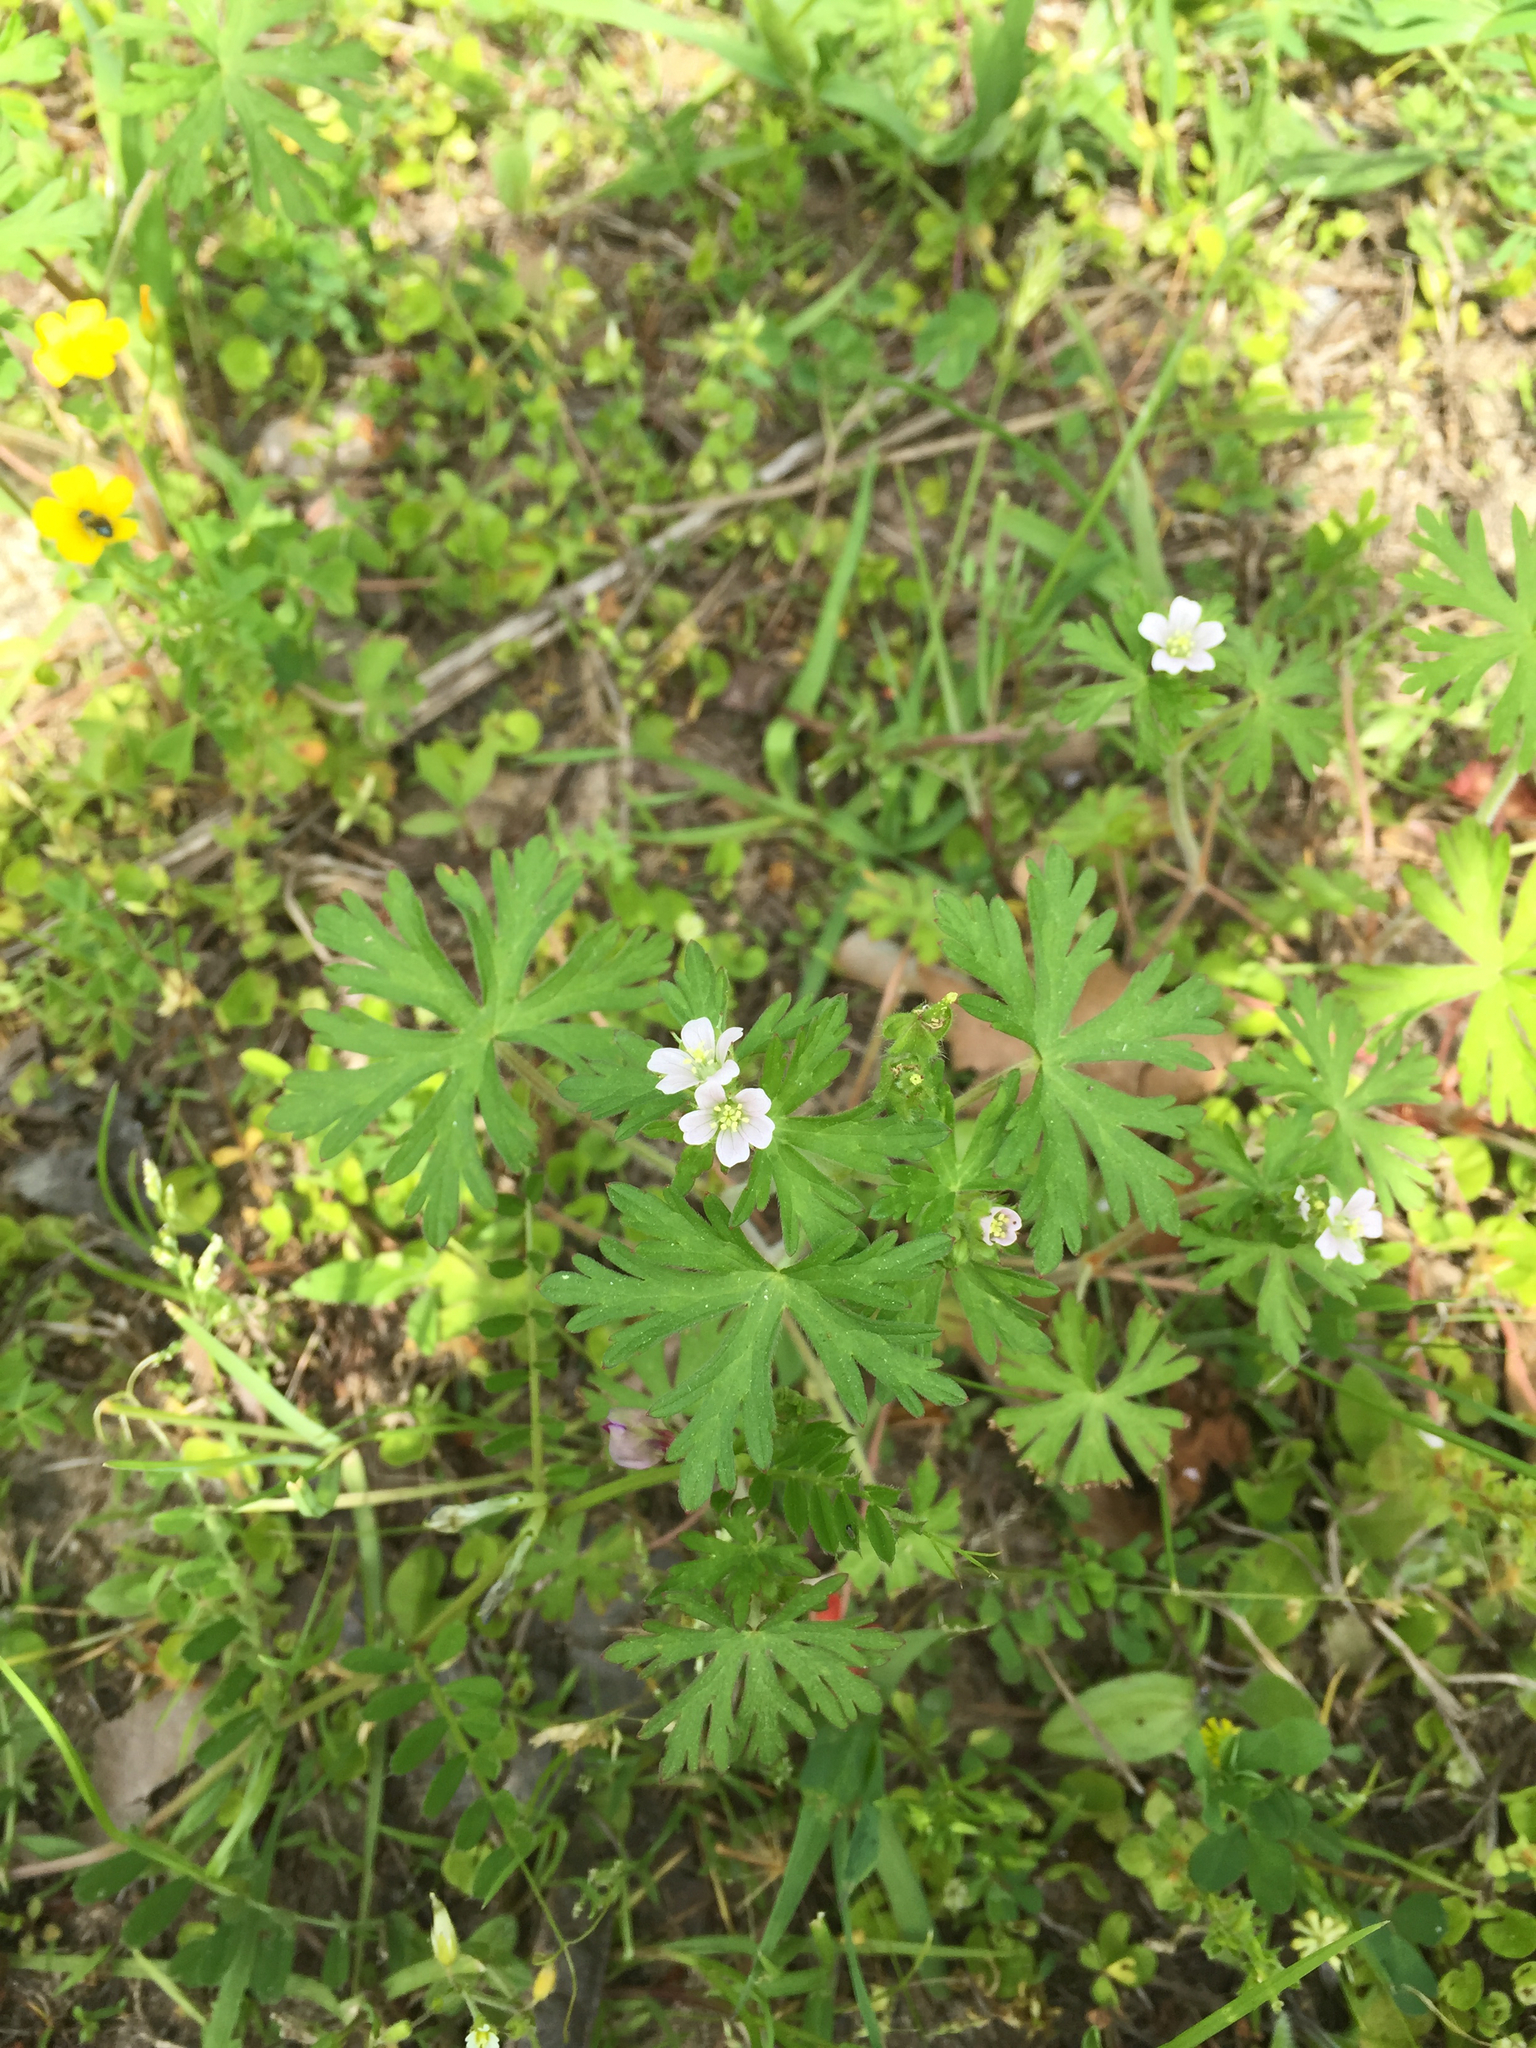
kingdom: Plantae
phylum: Tracheophyta
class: Magnoliopsida
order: Geraniales
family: Geraniaceae
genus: Geranium
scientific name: Geranium carolinianum
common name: Carolina crane's-bill
